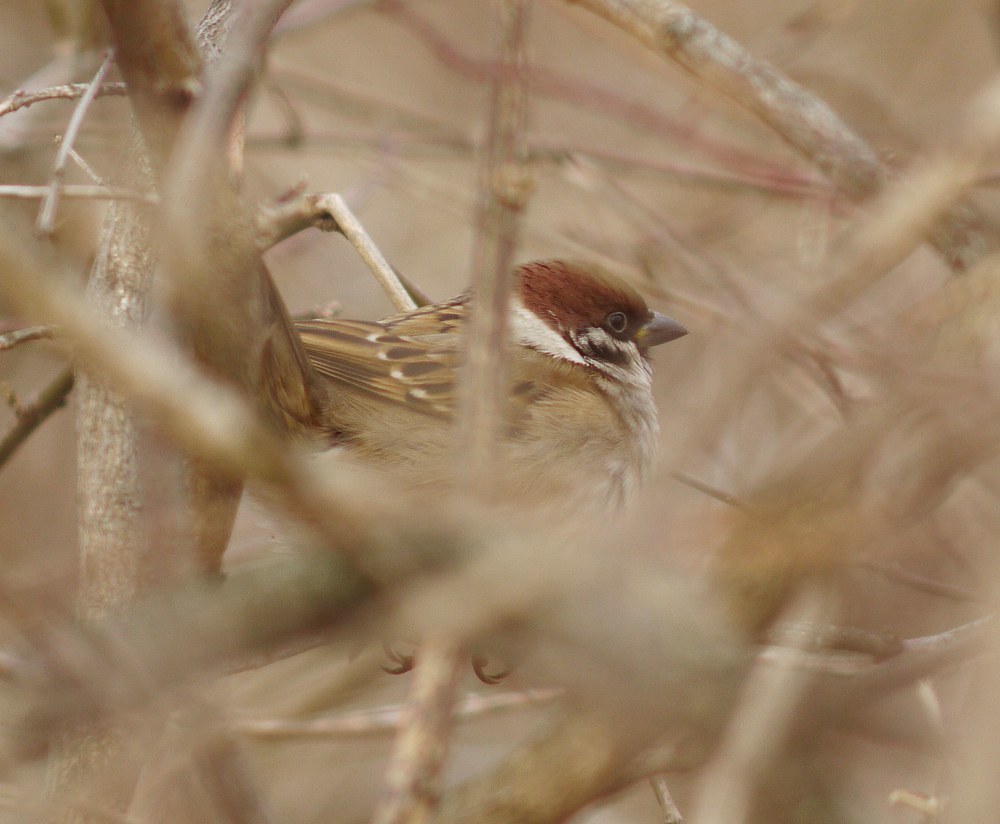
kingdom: Animalia
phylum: Chordata
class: Aves
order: Passeriformes
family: Passeridae
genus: Passer
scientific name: Passer montanus
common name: Eurasian tree sparrow
